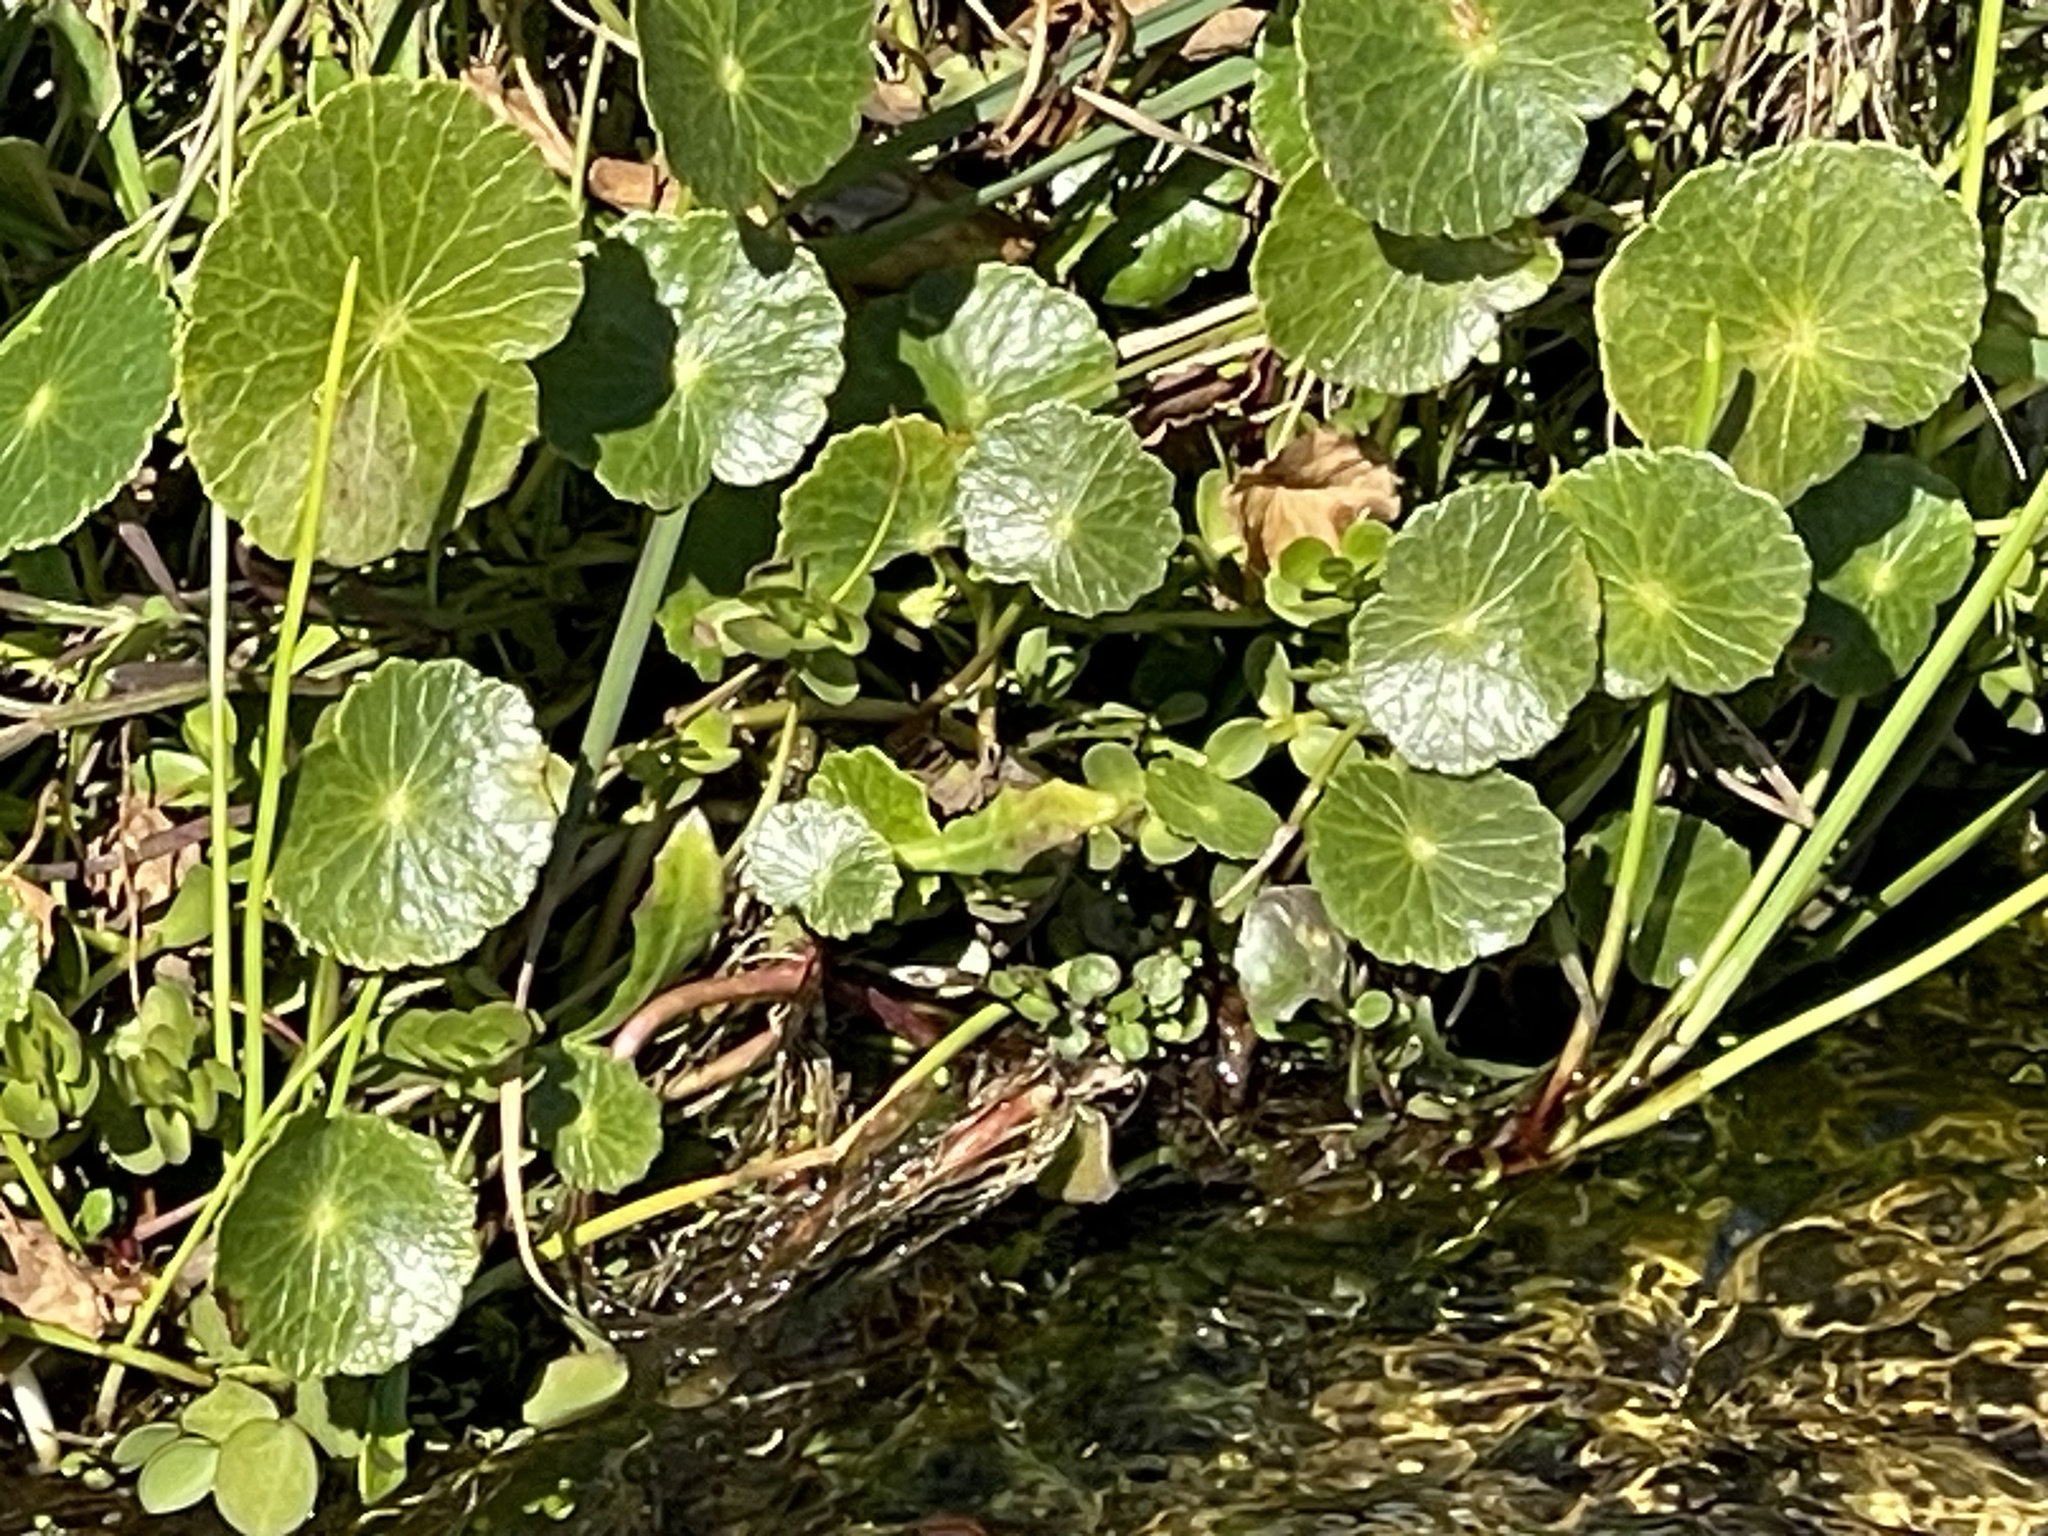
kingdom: Plantae
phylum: Tracheophyta
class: Magnoliopsida
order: Apiales
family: Araliaceae
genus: Hydrocotyle
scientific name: Hydrocotyle bonariensis
